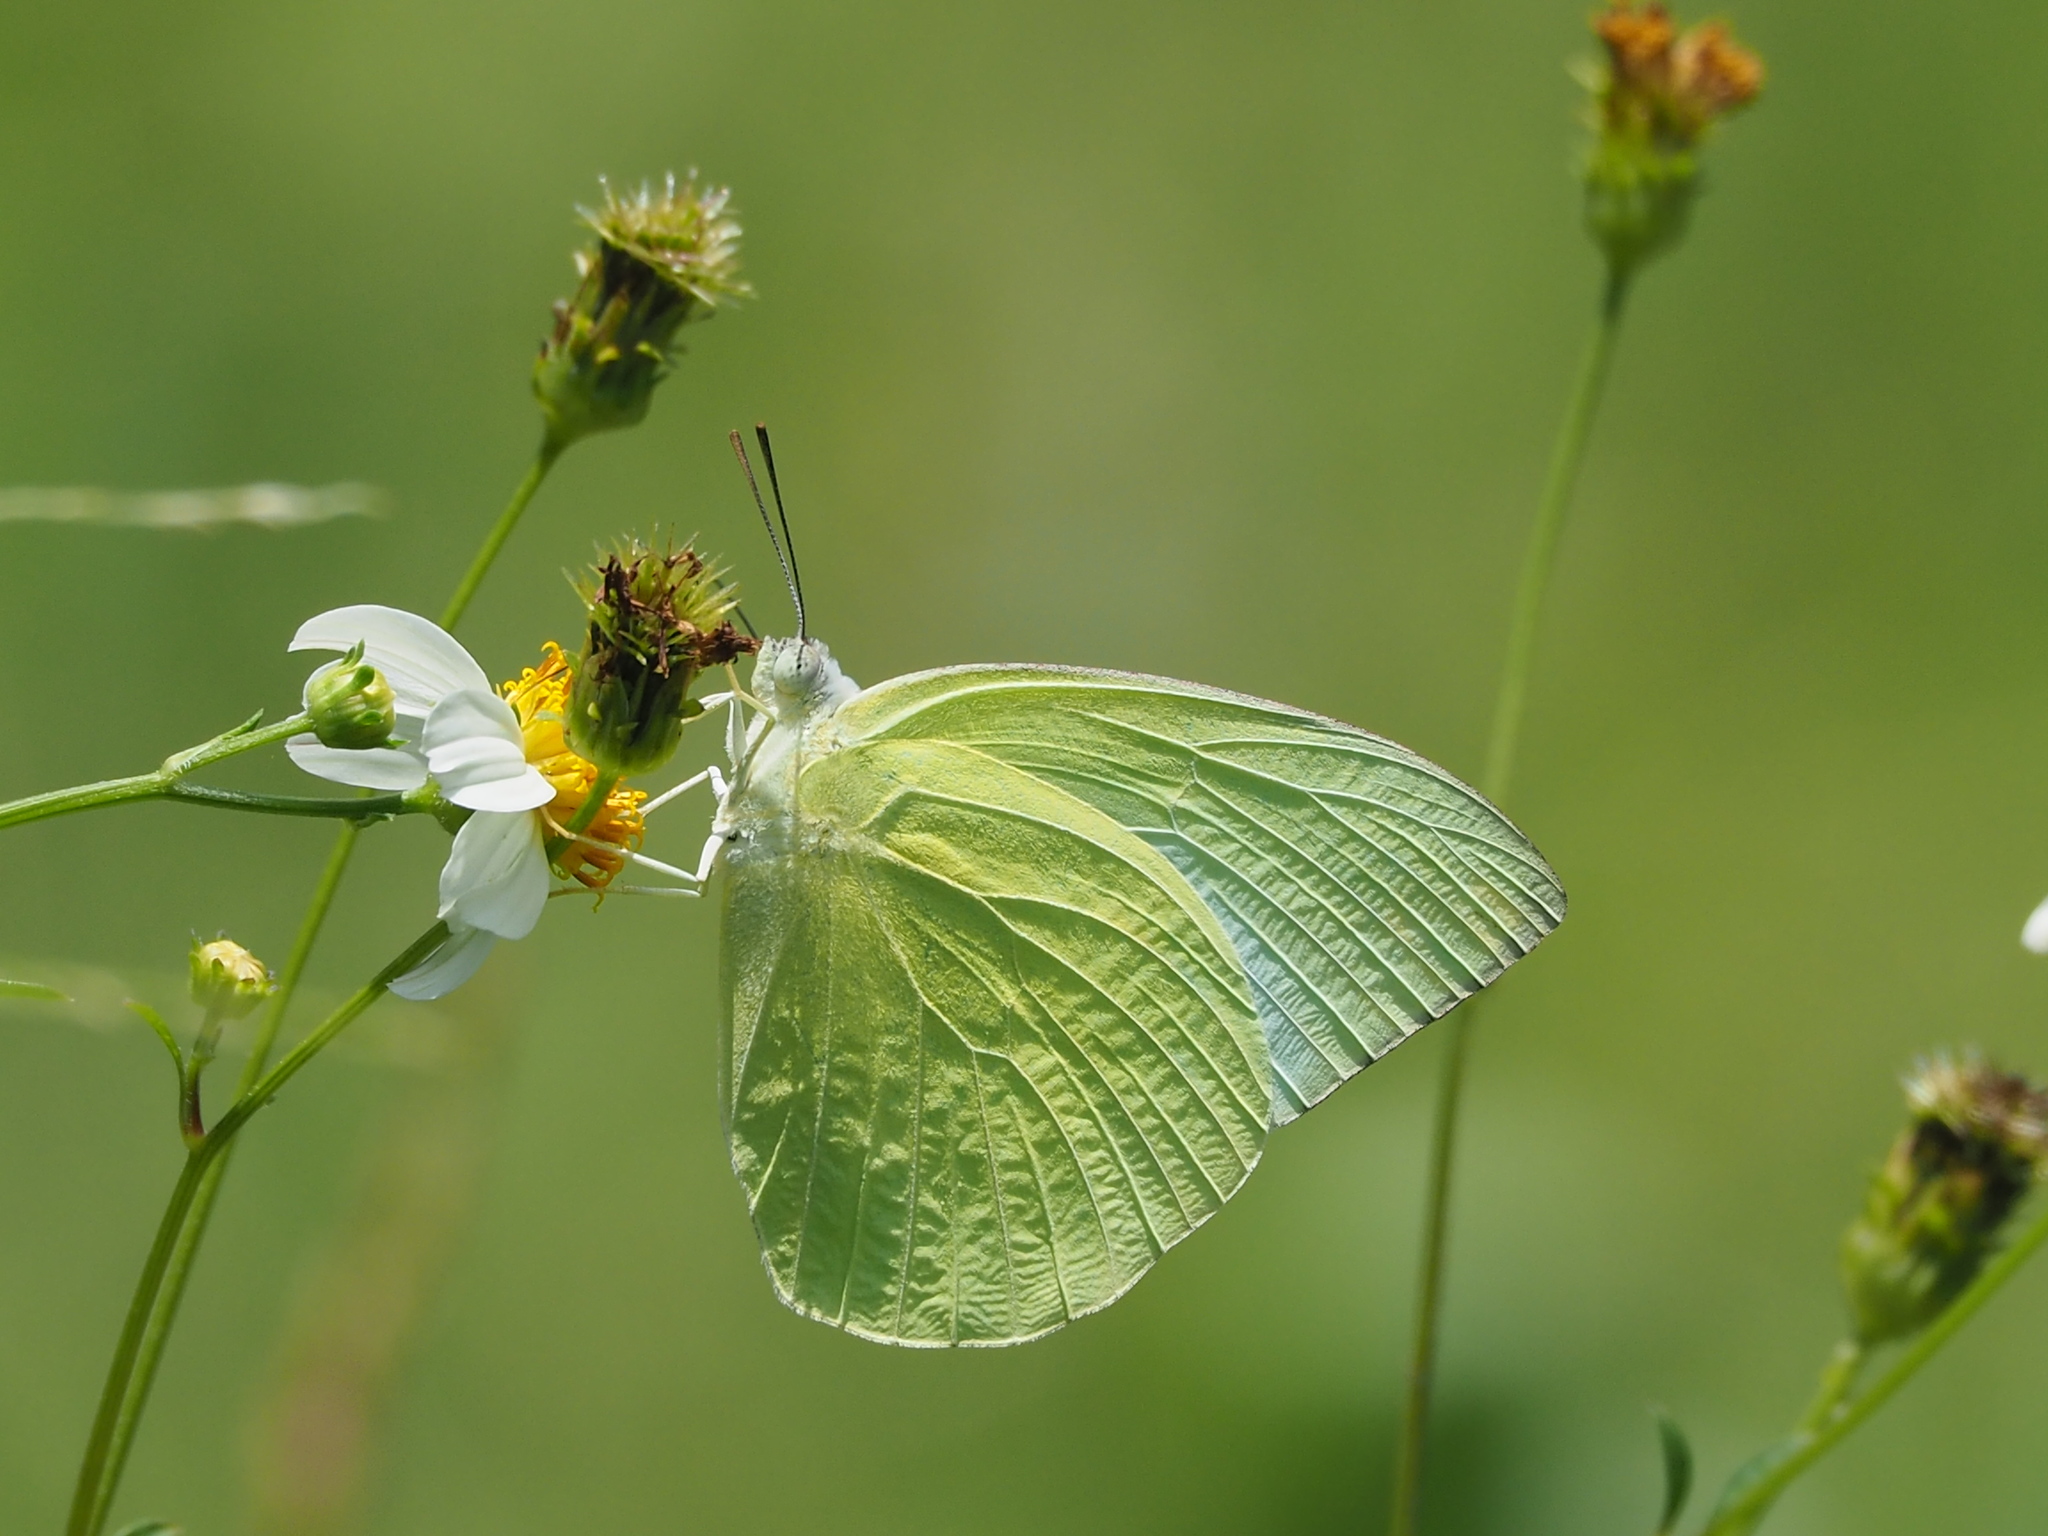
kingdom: Animalia
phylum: Arthropoda
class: Insecta
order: Lepidoptera
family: Pieridae
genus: Catopsilia
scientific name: Catopsilia pomona
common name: Common emigrant
